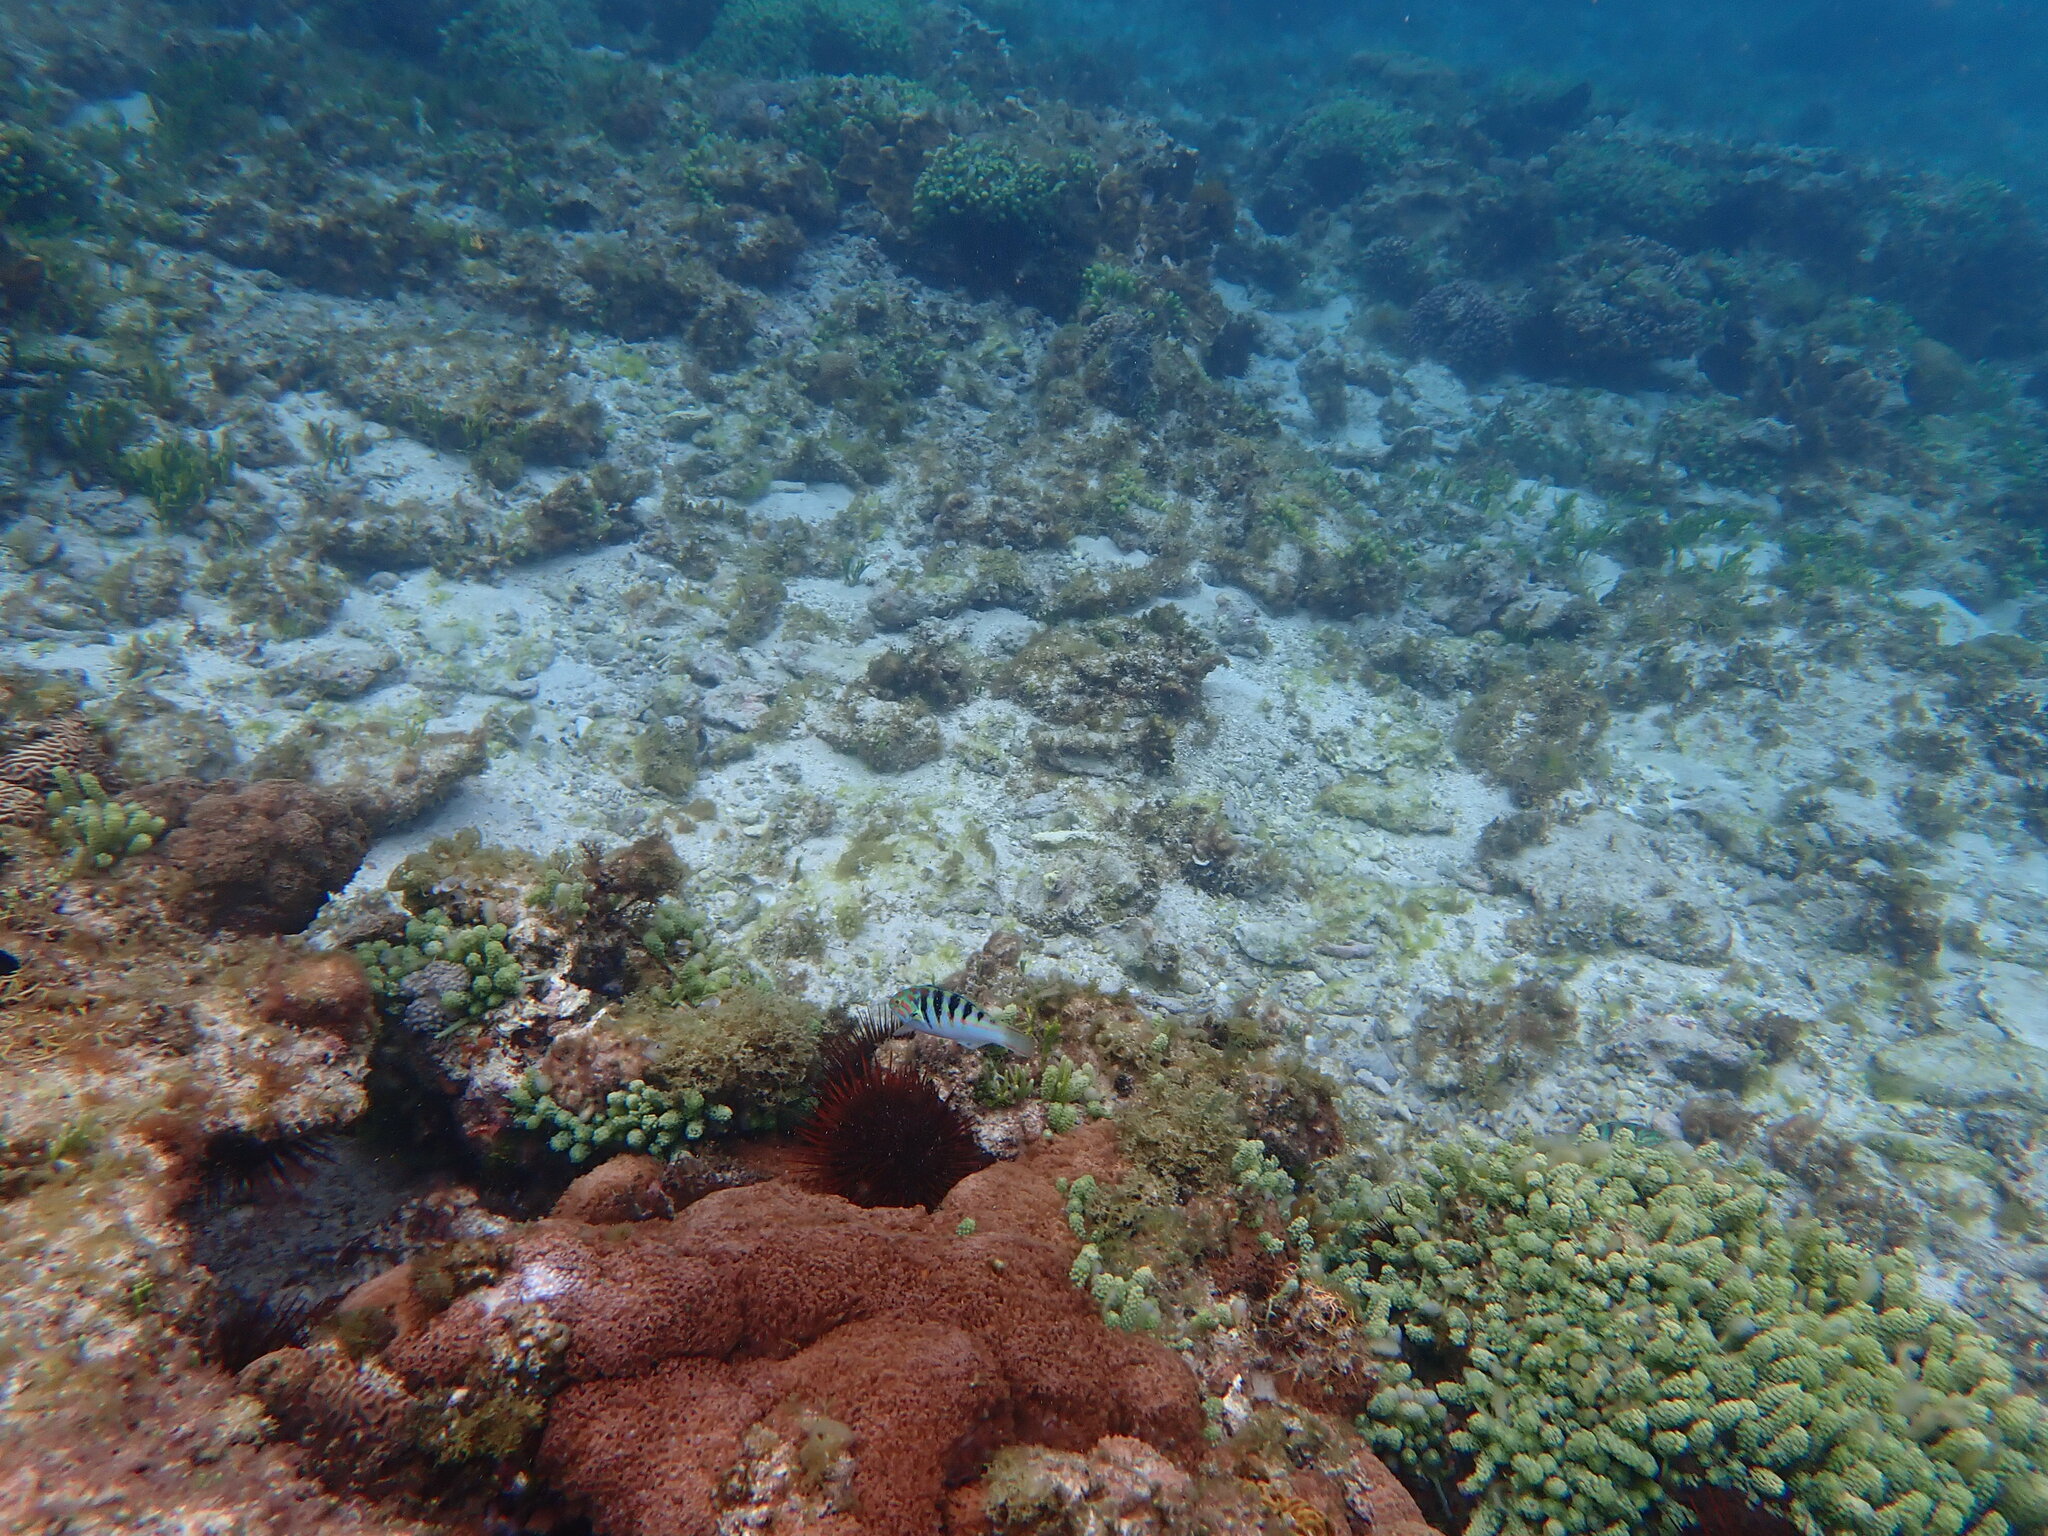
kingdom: Animalia
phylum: Chordata
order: Perciformes
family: Labridae
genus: Thalassoma
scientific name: Thalassoma hardwicke
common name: Sixbar wrasse
